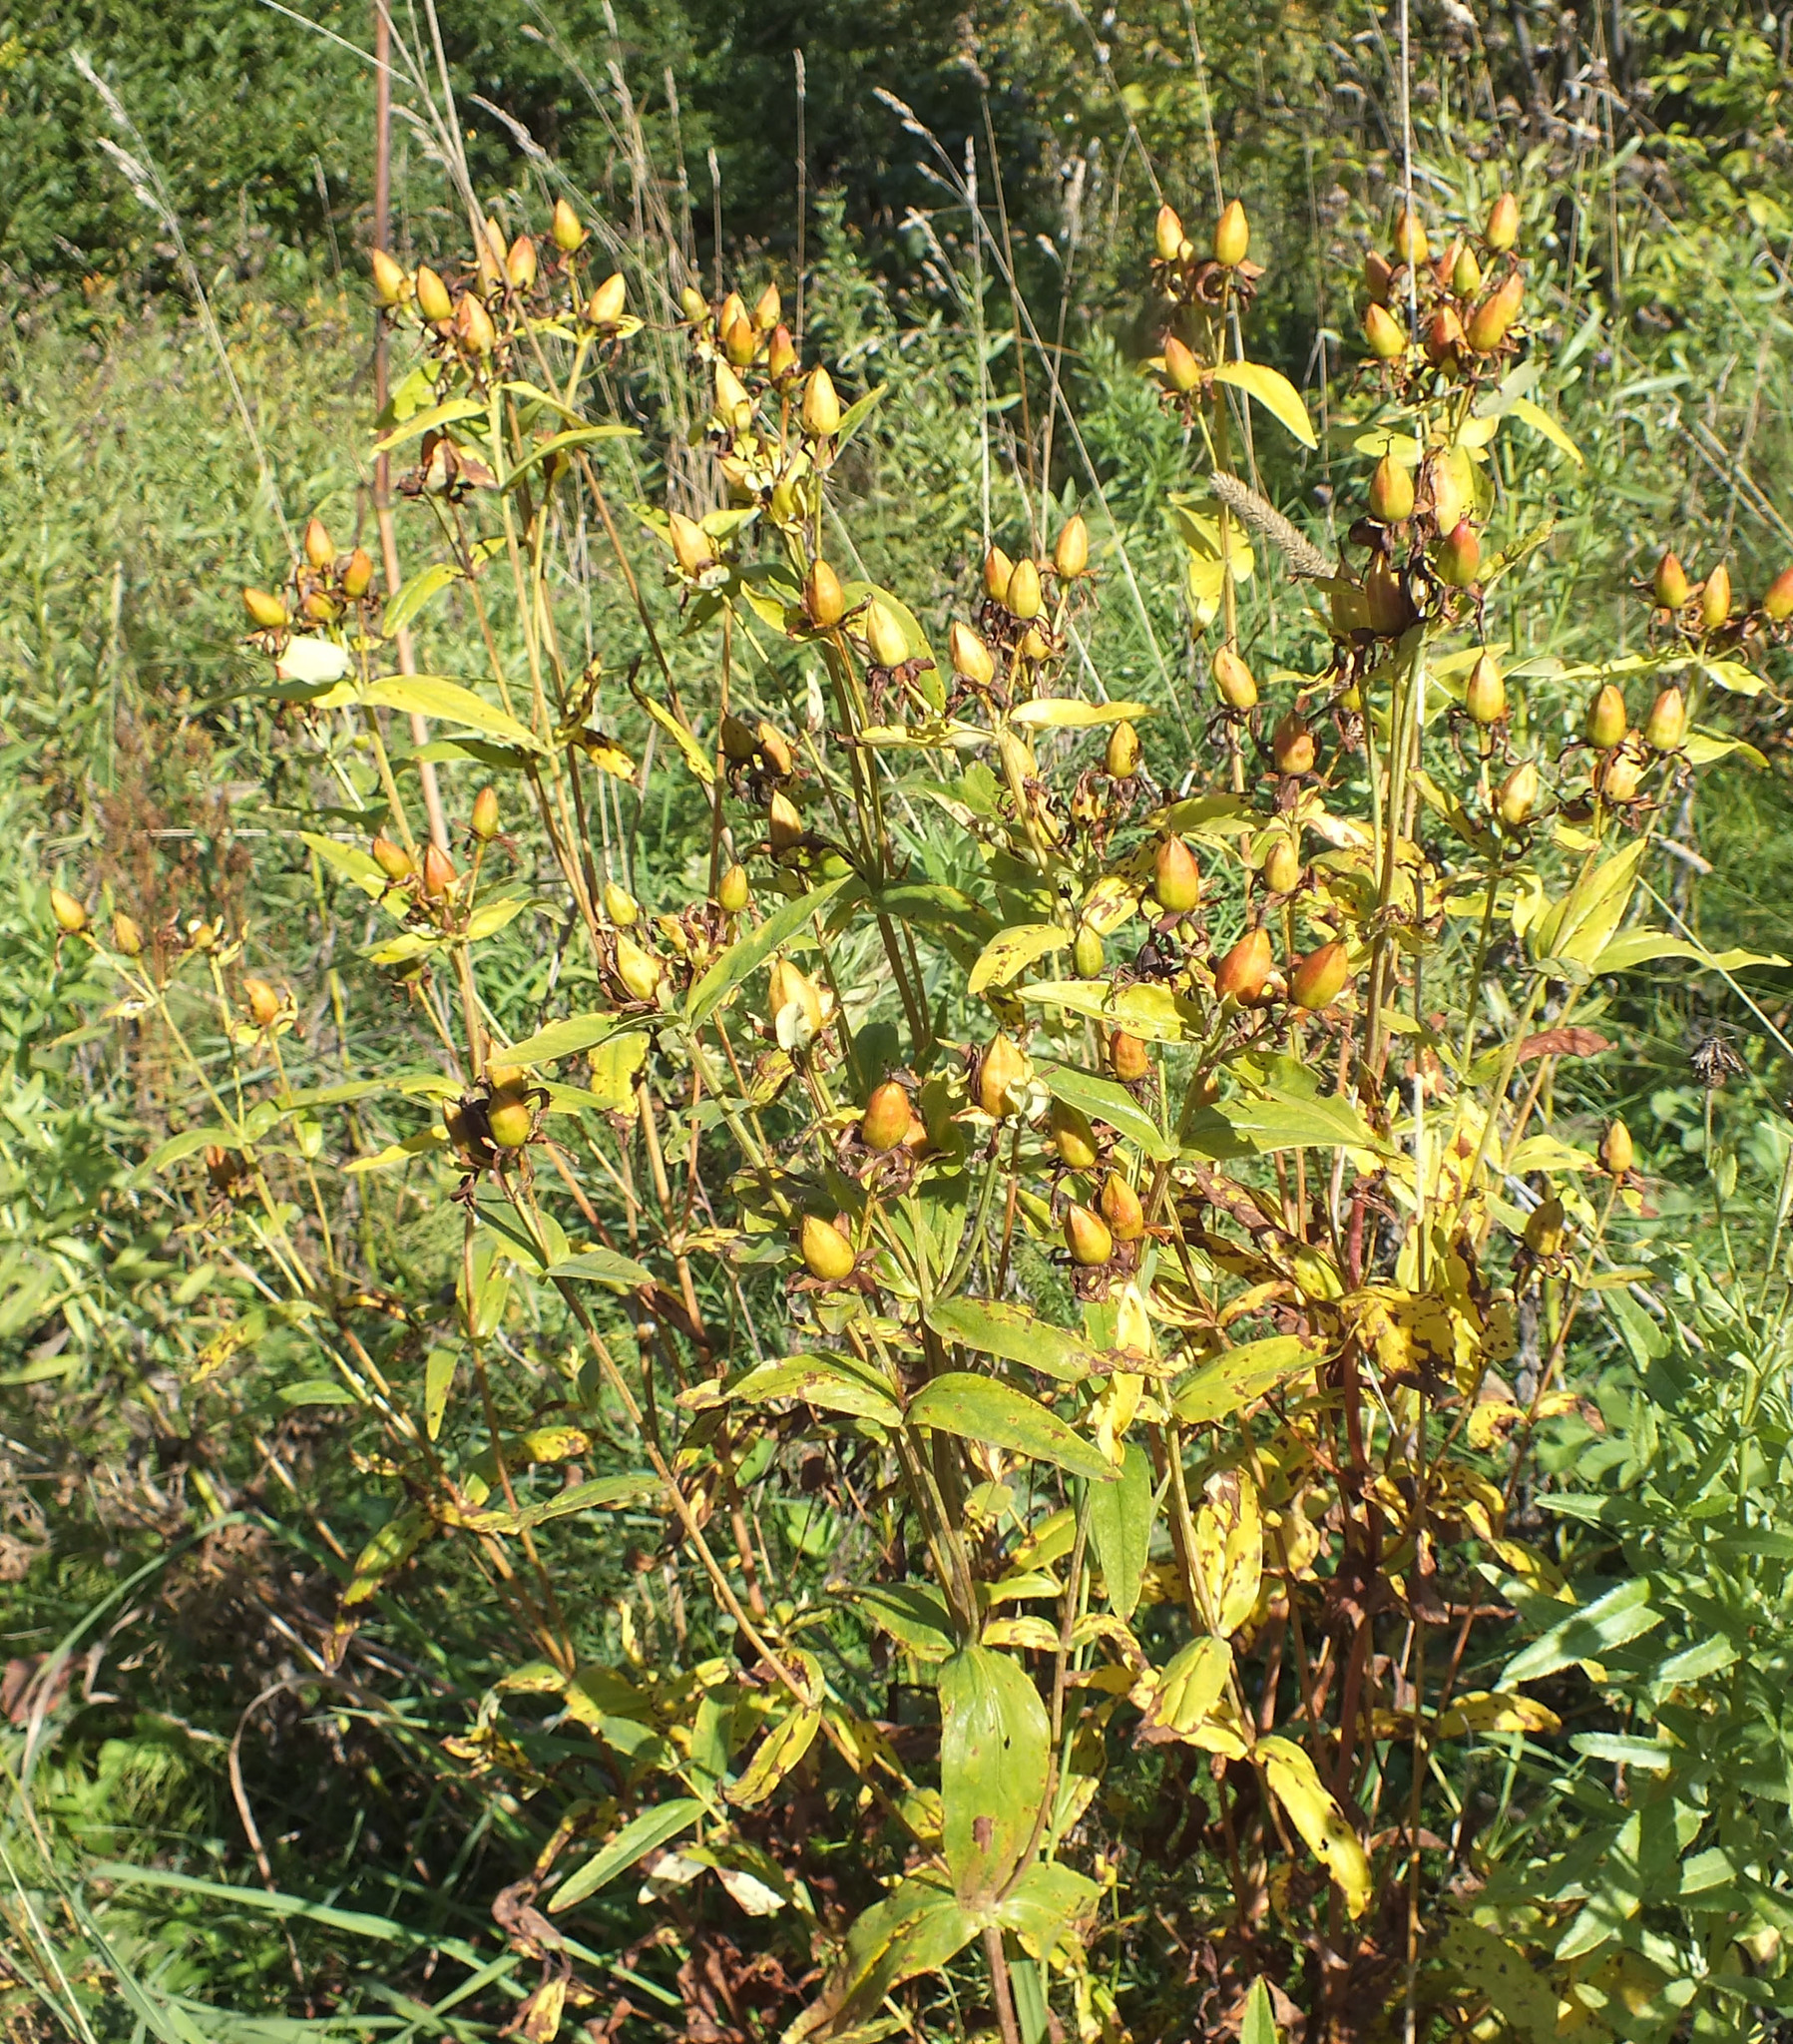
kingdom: Plantae
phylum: Tracheophyta
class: Magnoliopsida
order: Malpighiales
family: Hypericaceae
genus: Hypericum
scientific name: Hypericum ascyron
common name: Giant st. john's-wort
